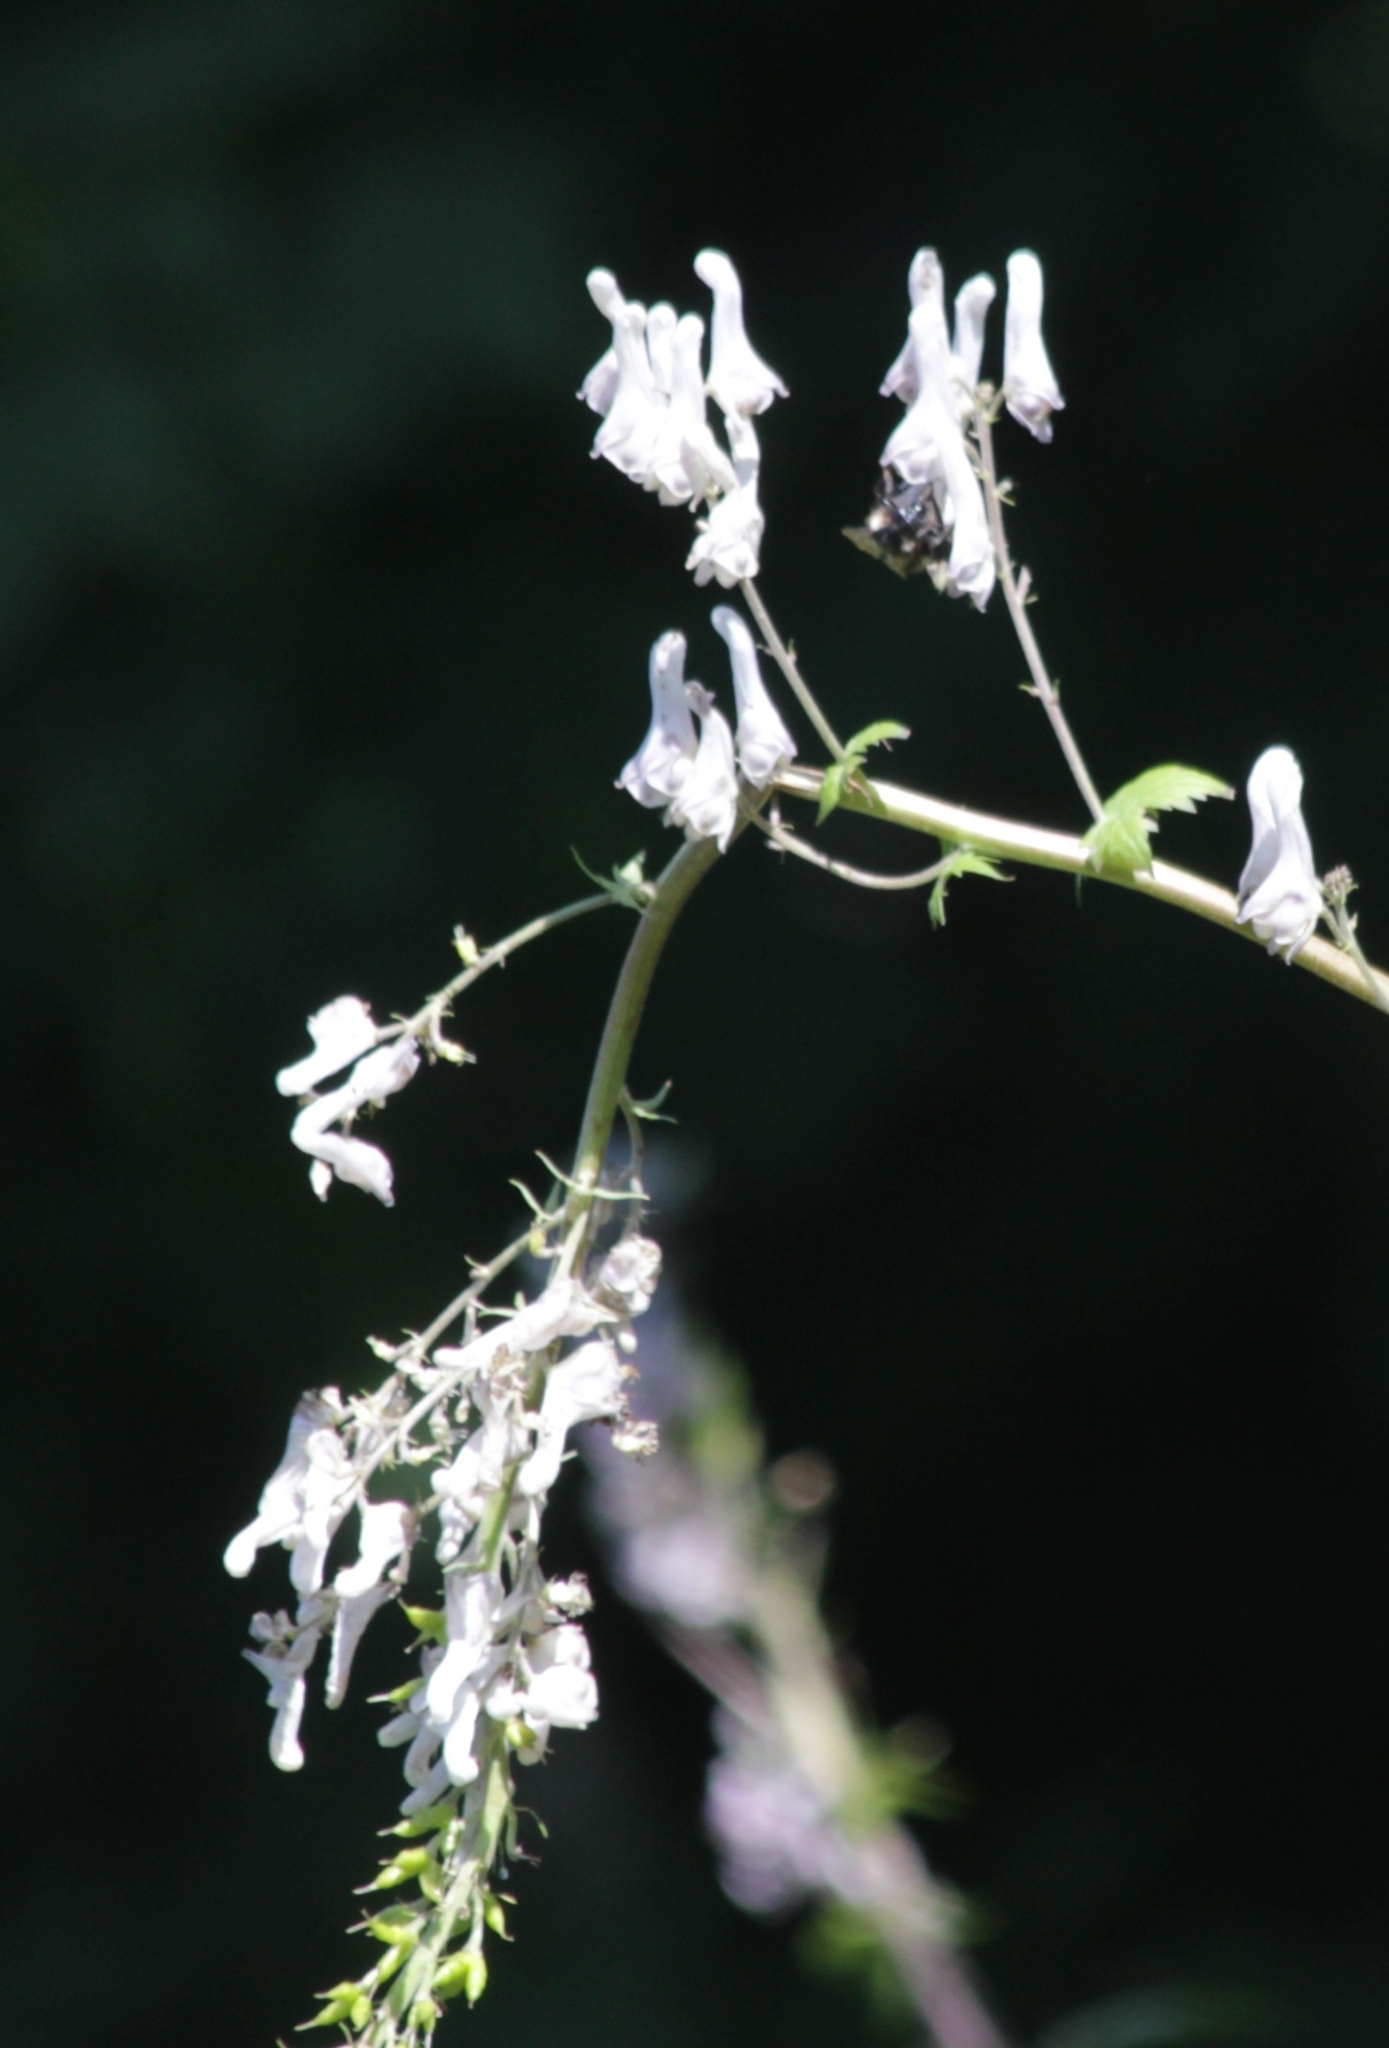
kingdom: Plantae
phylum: Tracheophyta
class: Magnoliopsida
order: Ranunculales
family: Ranunculaceae
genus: Aconitum
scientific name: Aconitum orientale
